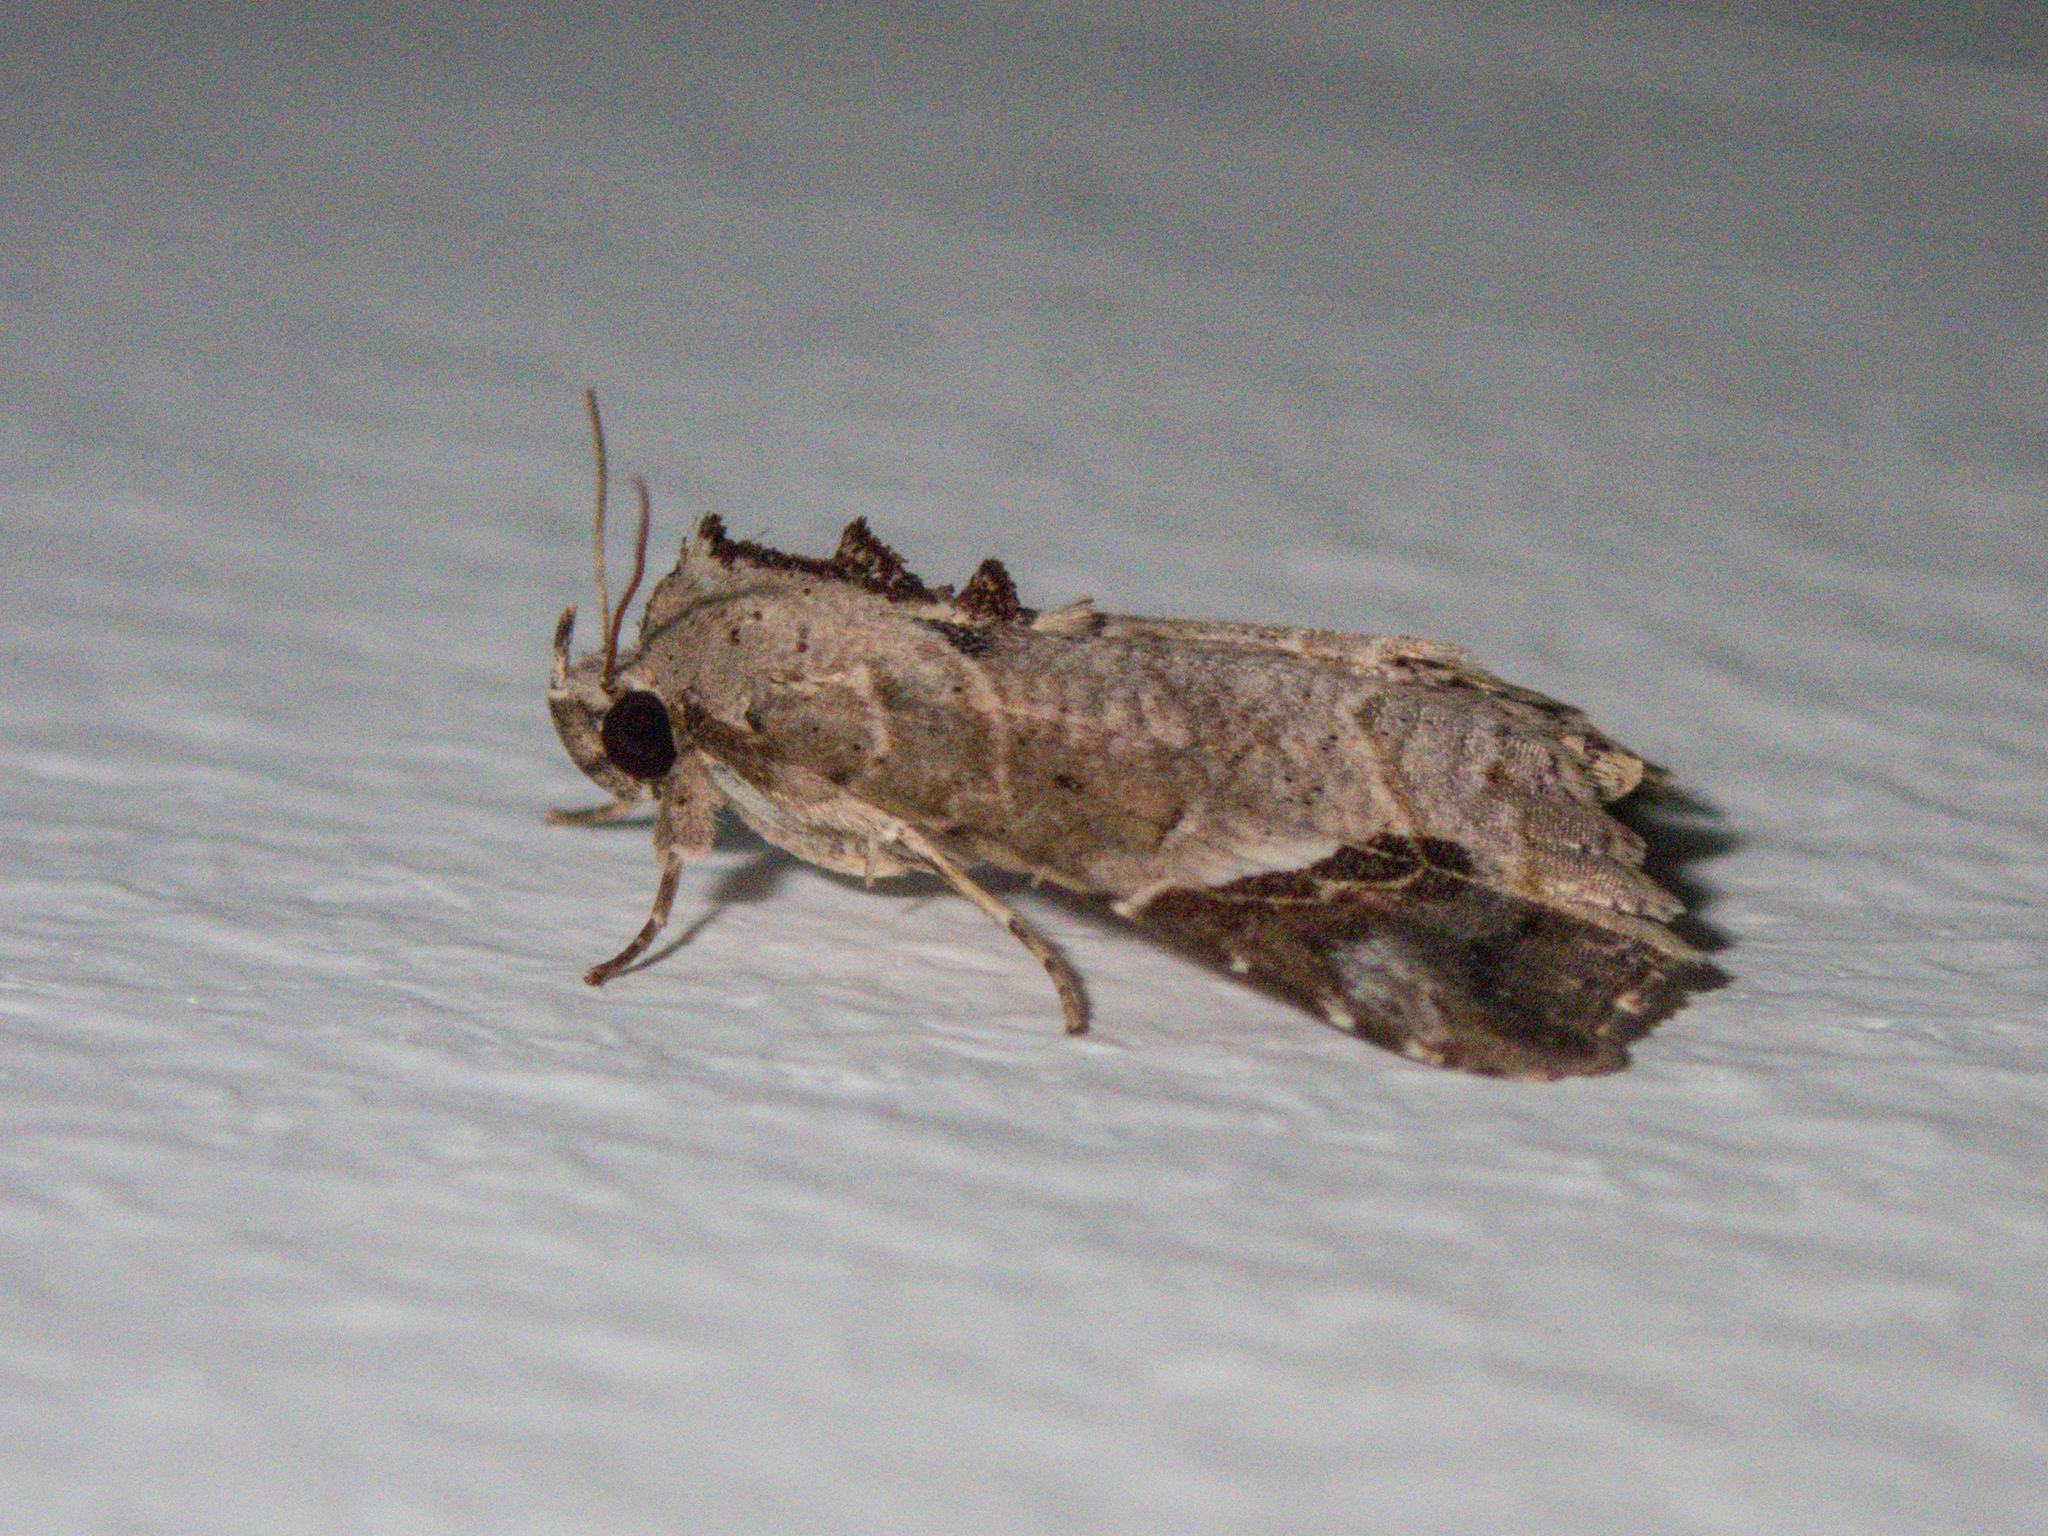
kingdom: Animalia
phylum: Arthropoda
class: Insecta
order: Lepidoptera
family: Erebidae
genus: Tamba
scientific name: Tamba cautiperas
